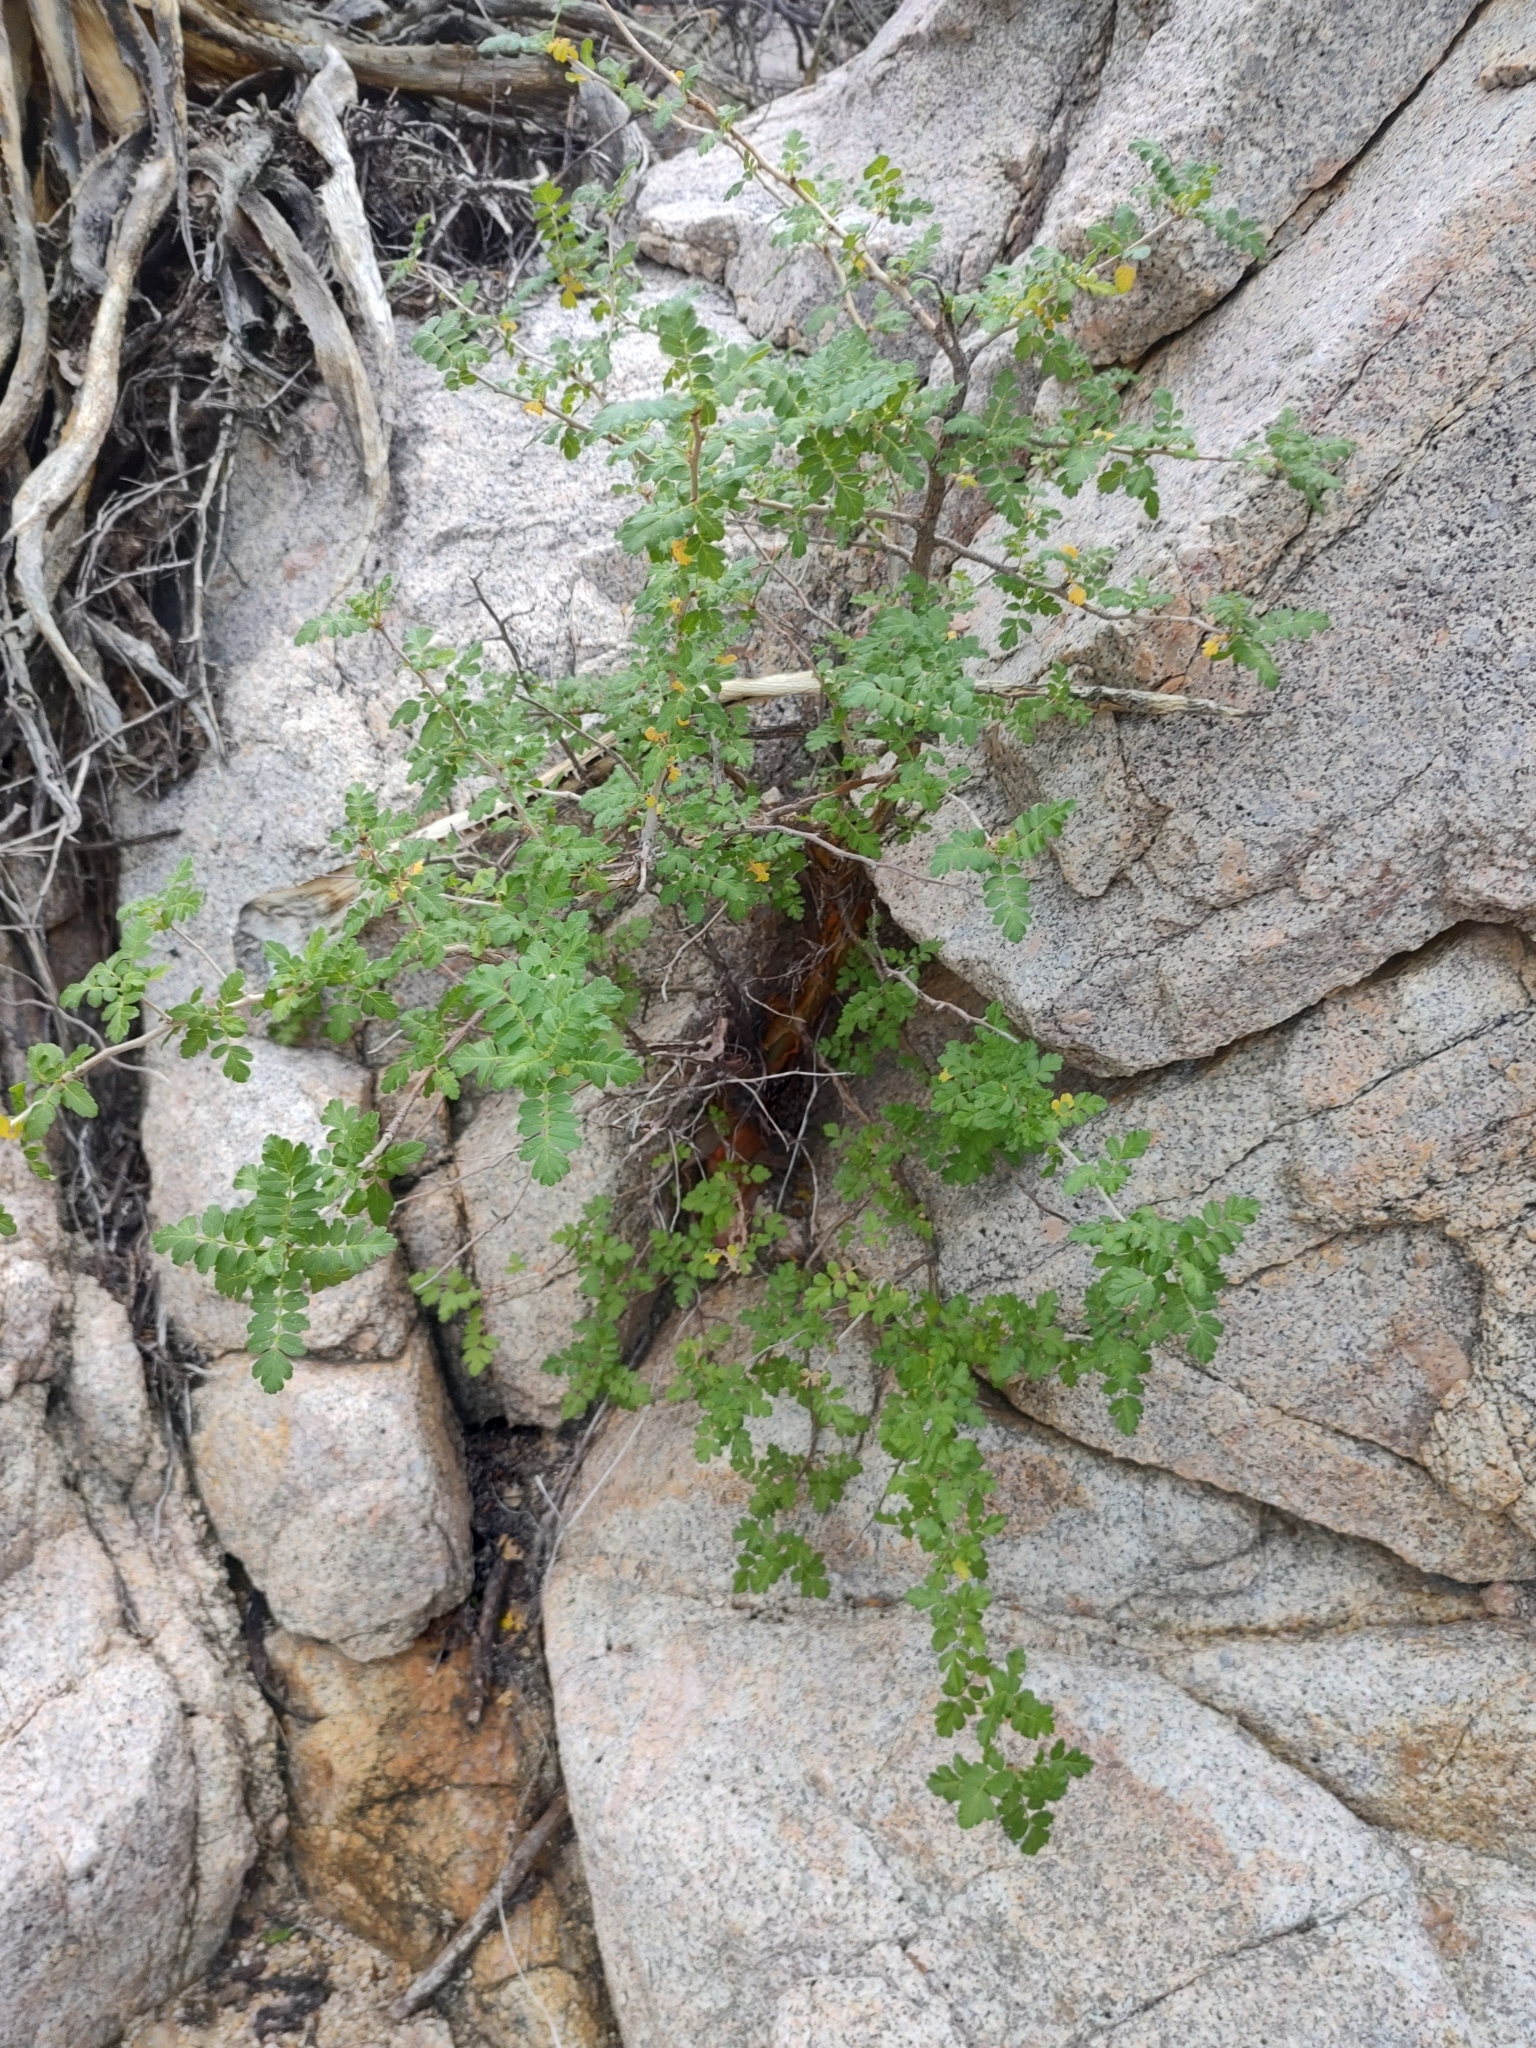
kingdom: Plantae
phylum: Tracheophyta
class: Magnoliopsida
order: Sapindales
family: Anacardiaceae
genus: Pachycormus
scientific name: Pachycormus discolor
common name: Succulent elephant trees
